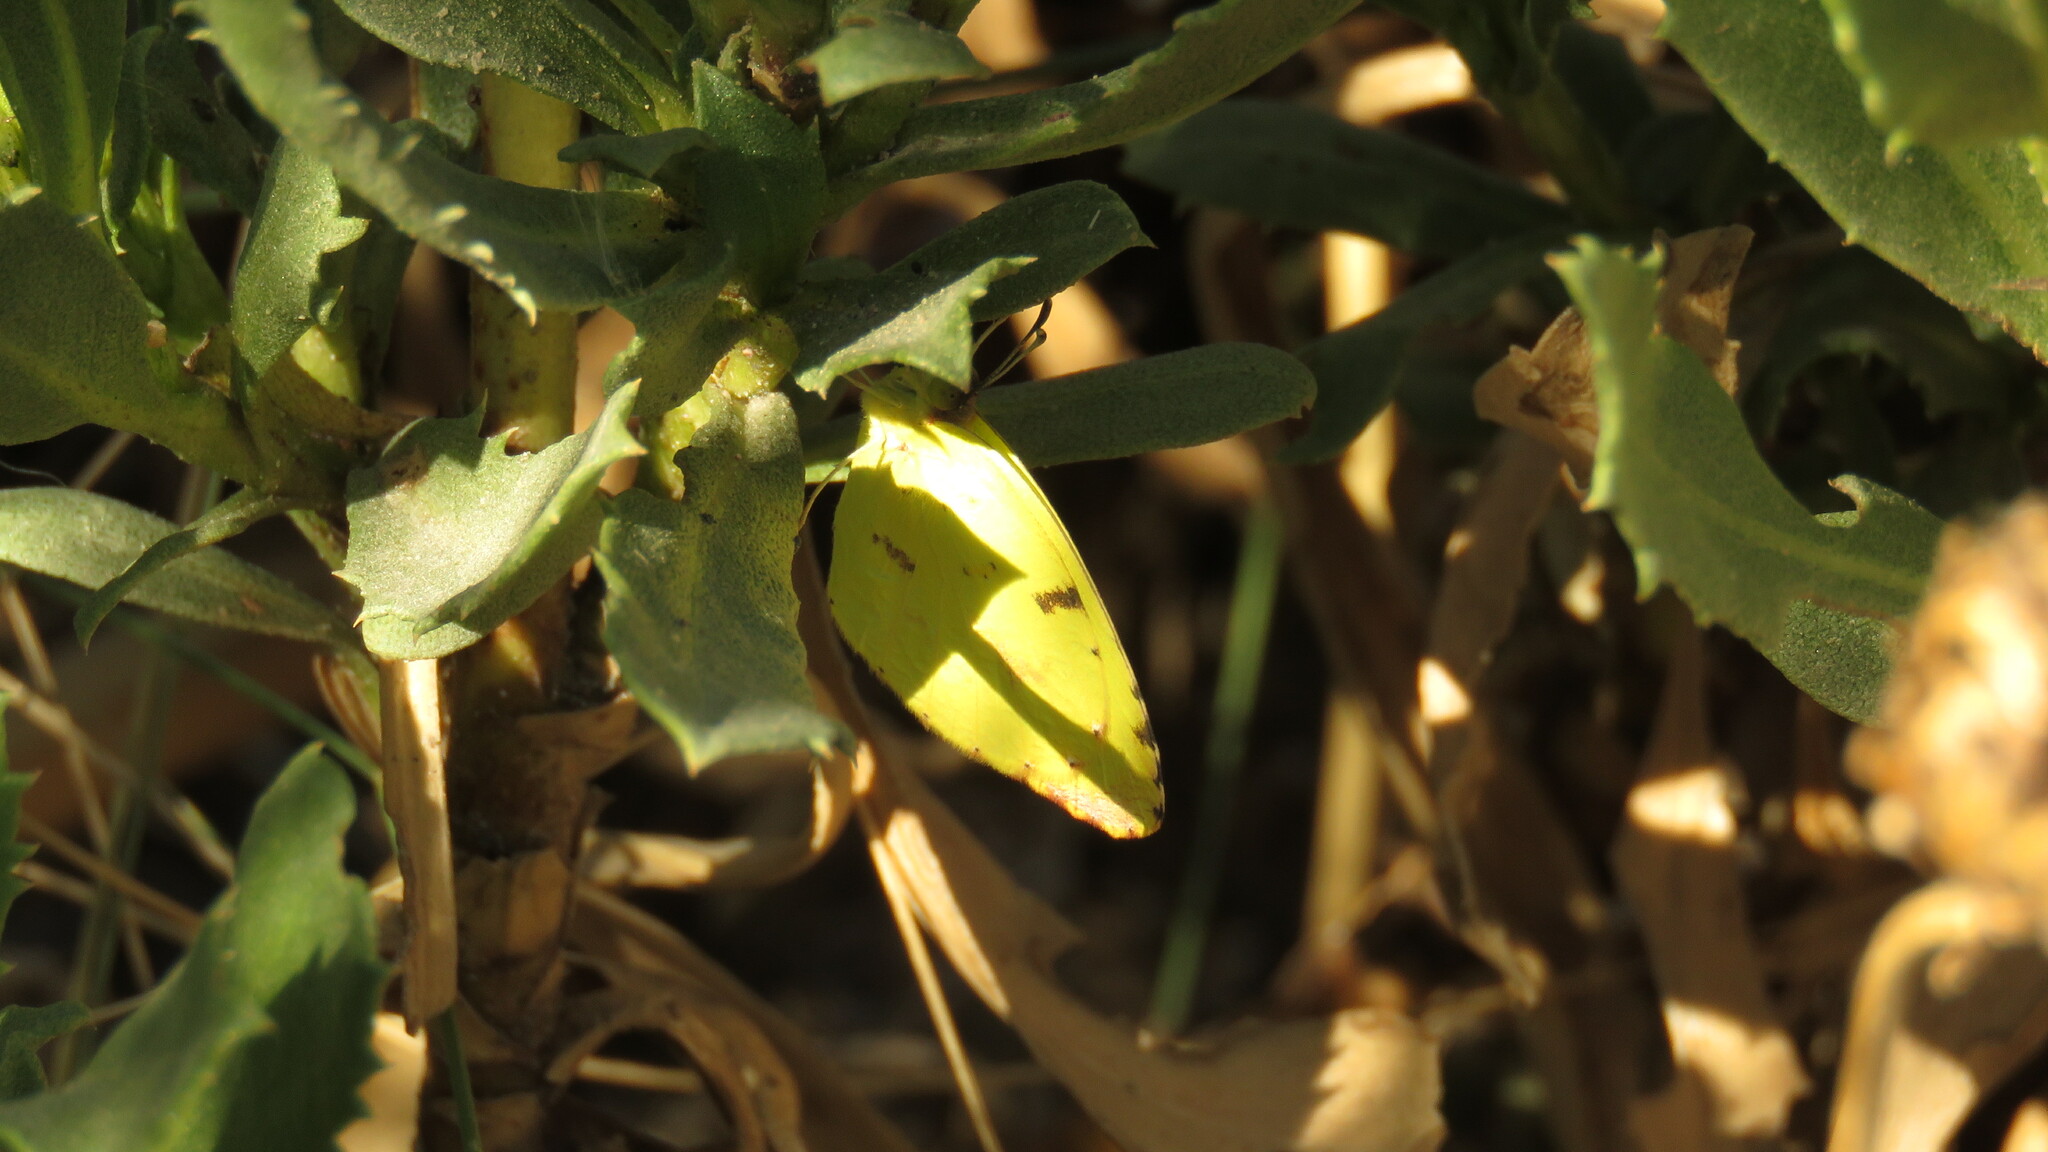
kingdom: Animalia
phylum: Arthropoda
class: Insecta
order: Lepidoptera
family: Pieridae
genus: Teriocolias
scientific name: Teriocolias
